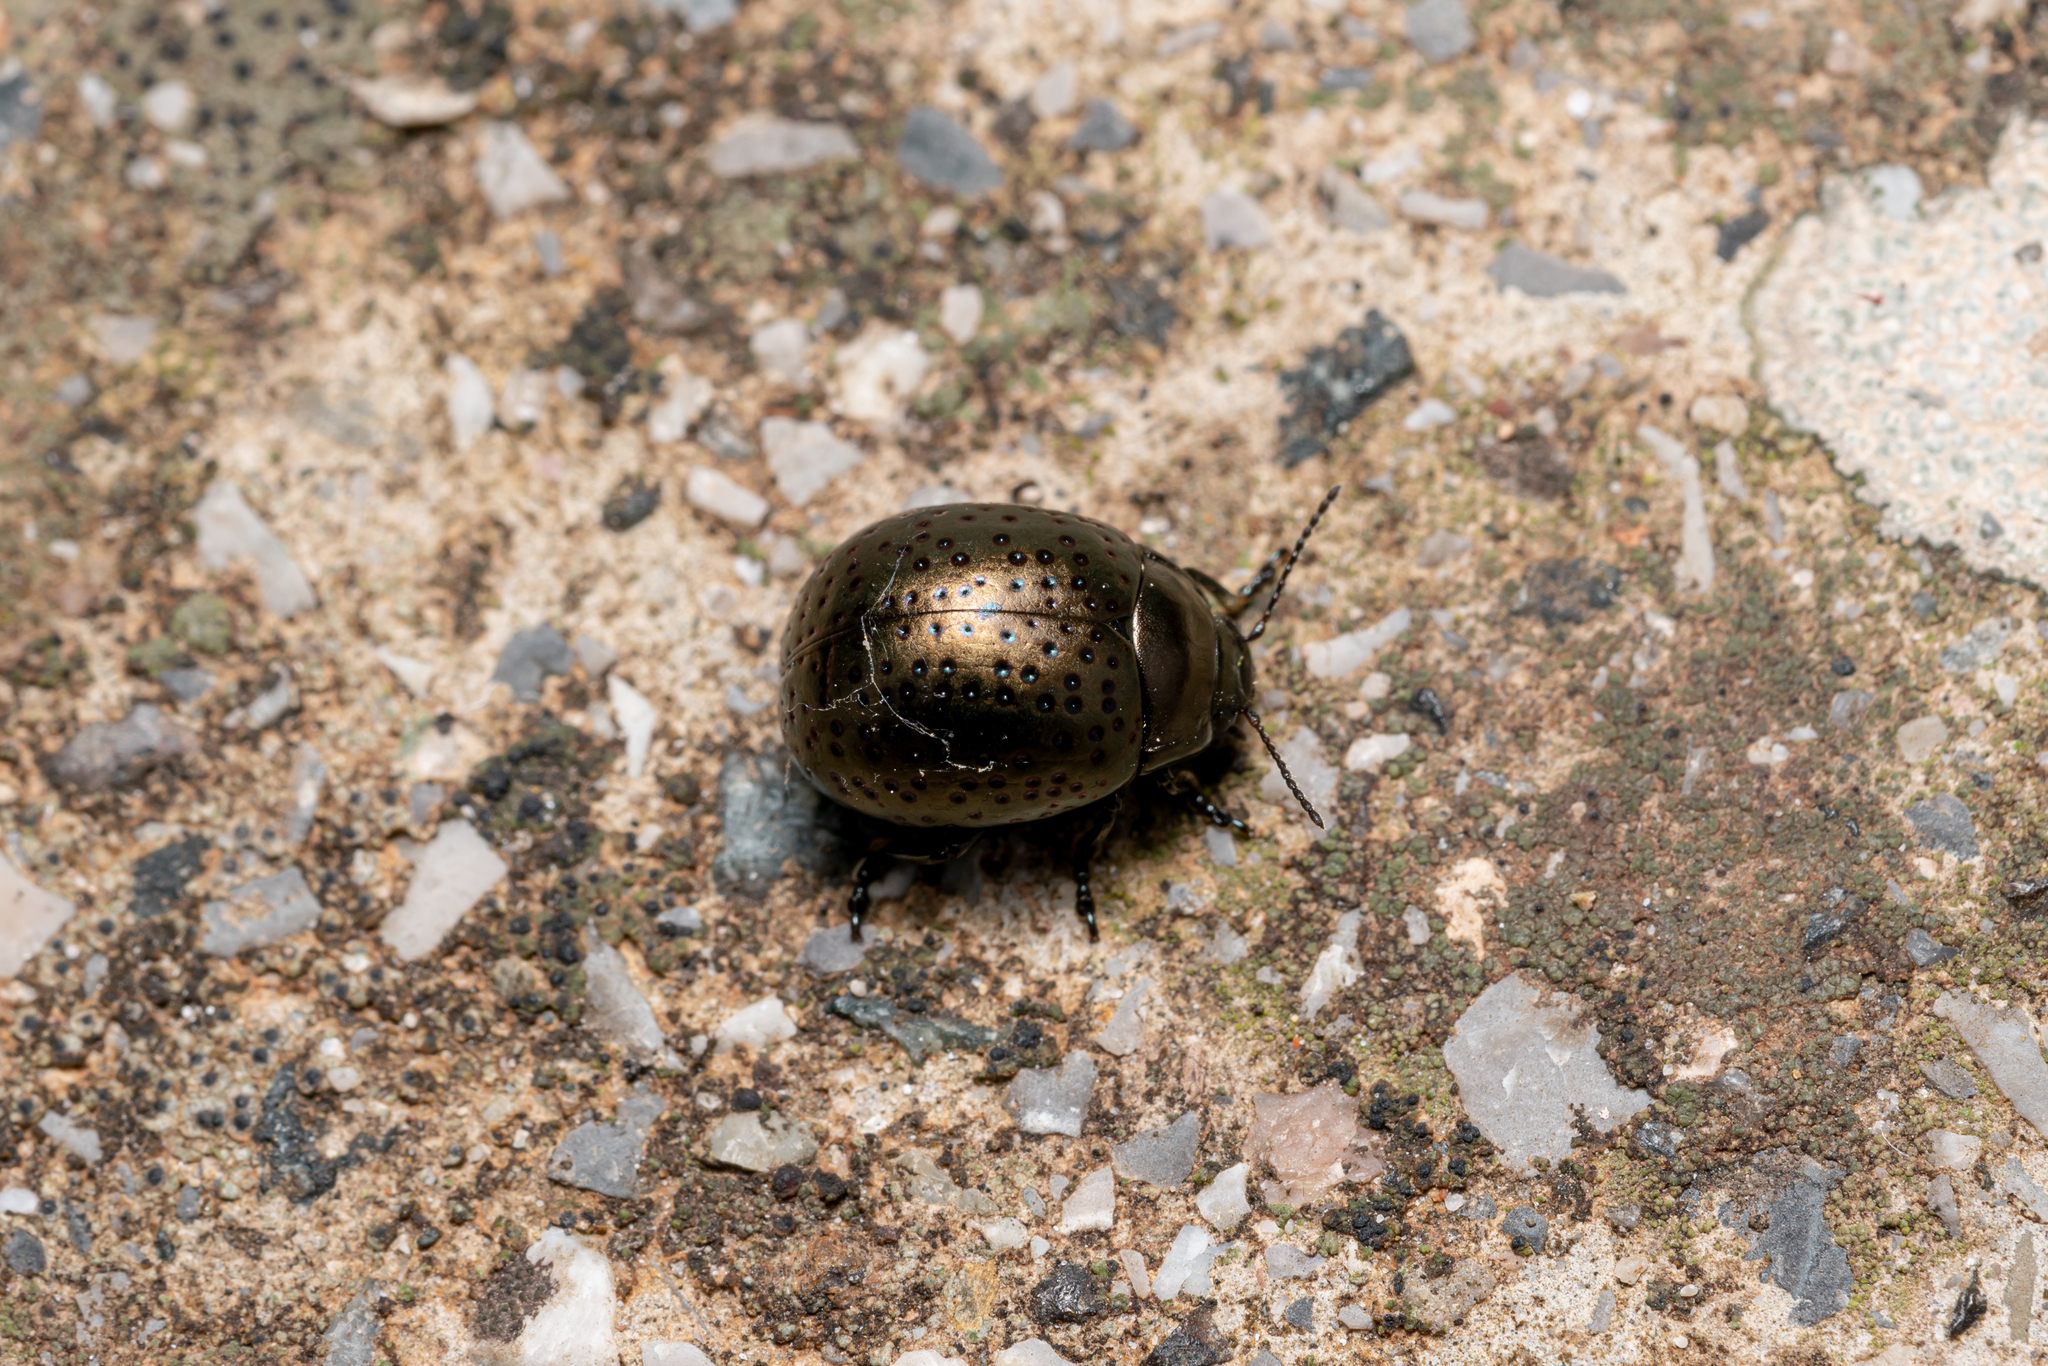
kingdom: Animalia
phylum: Arthropoda
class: Insecta
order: Coleoptera
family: Chrysomelidae
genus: Chrysolina
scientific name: Chrysolina rhodia
